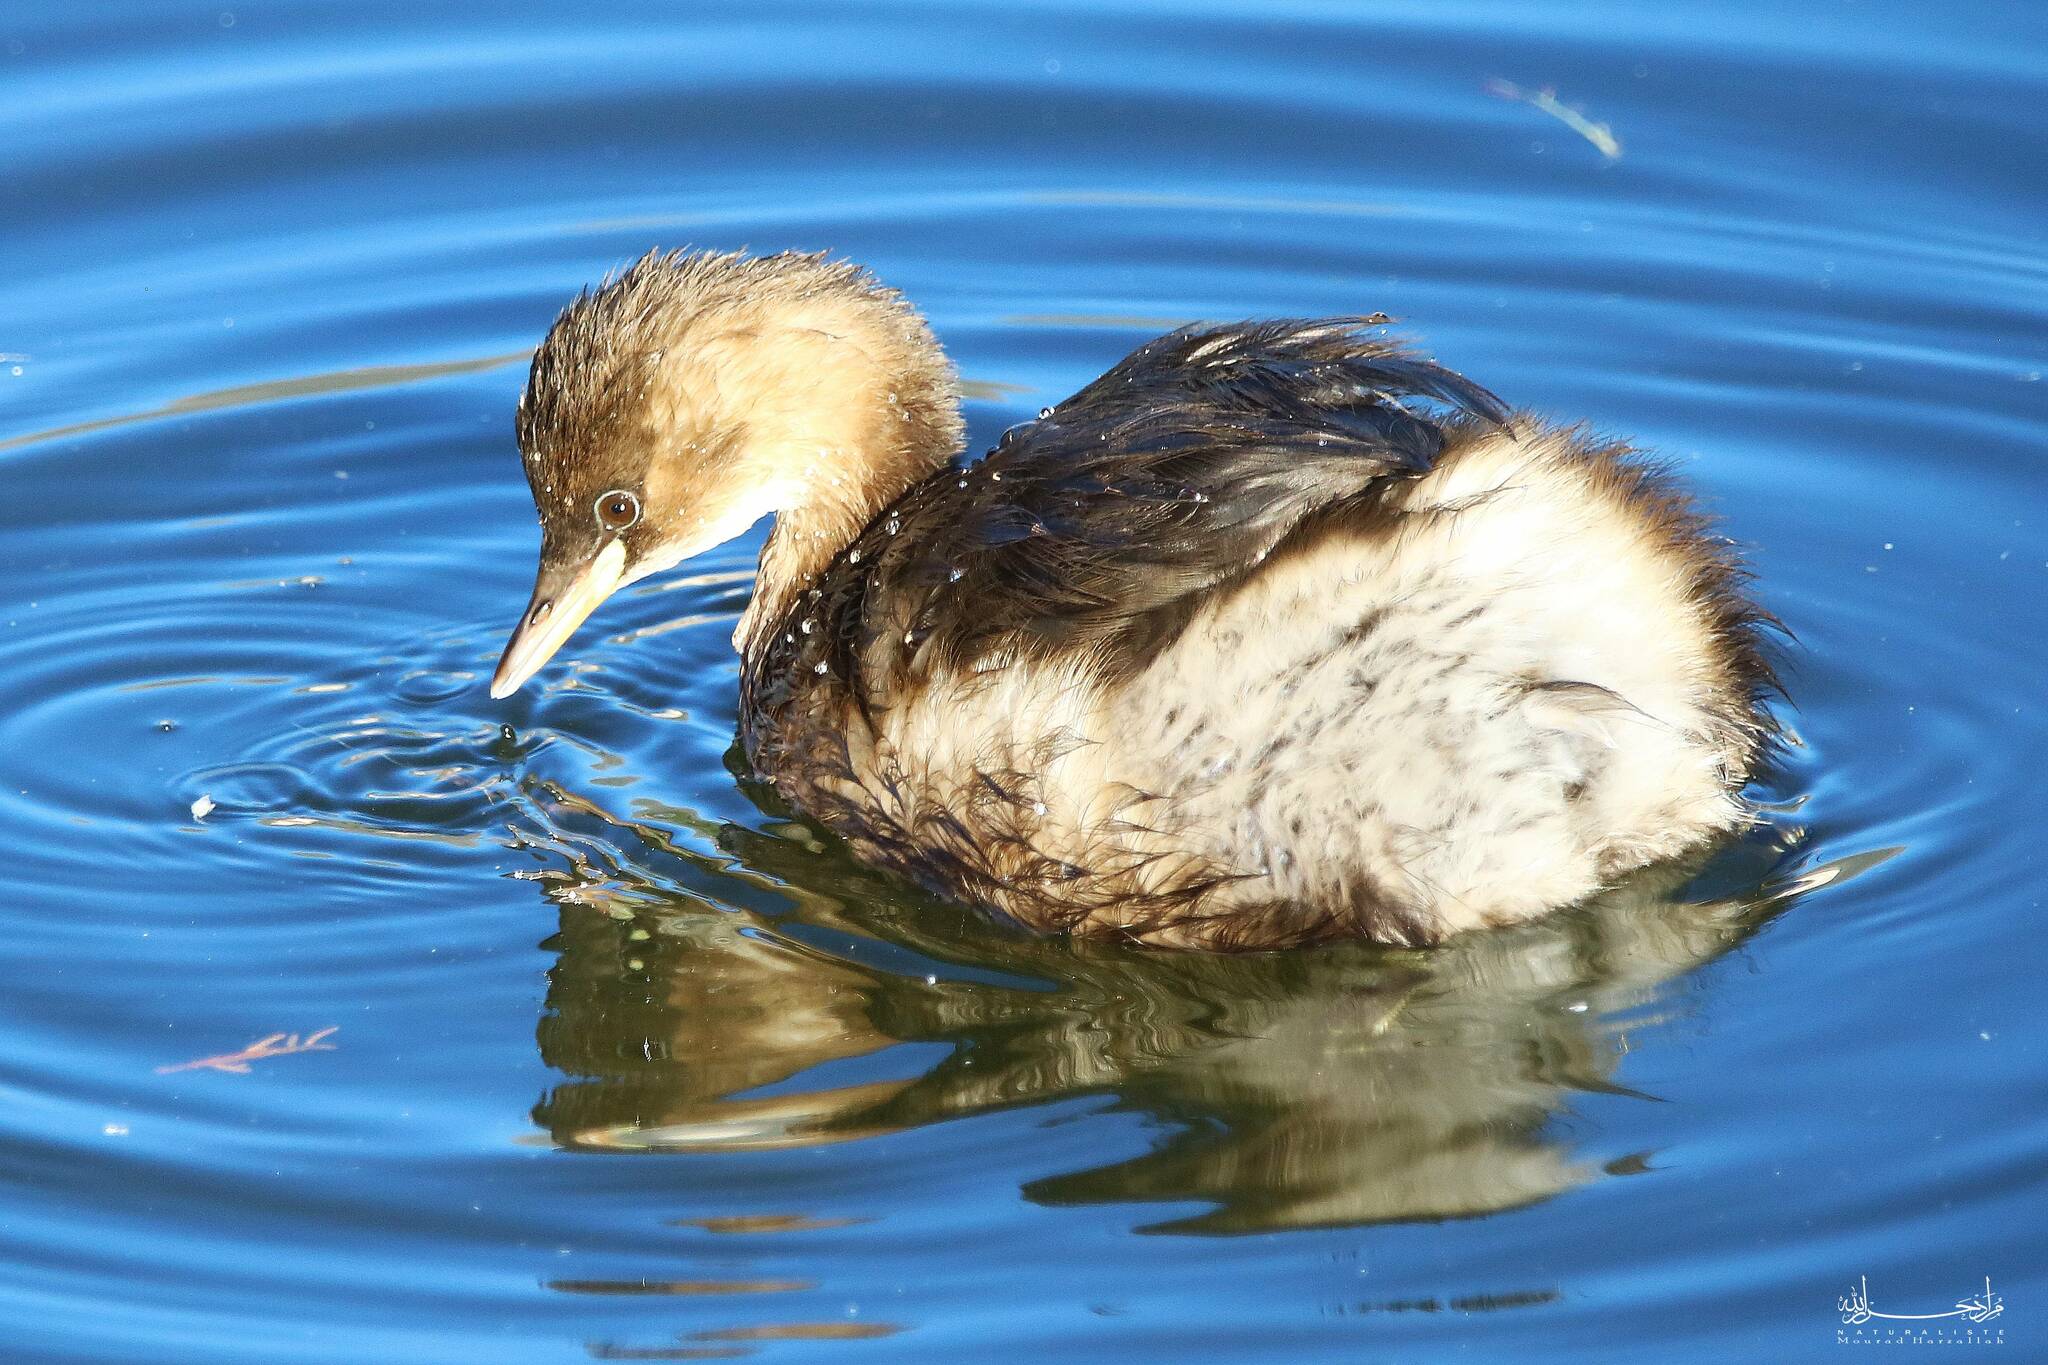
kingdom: Animalia
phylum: Chordata
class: Aves
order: Podicipediformes
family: Podicipedidae
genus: Tachybaptus
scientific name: Tachybaptus ruficollis
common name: Little grebe
